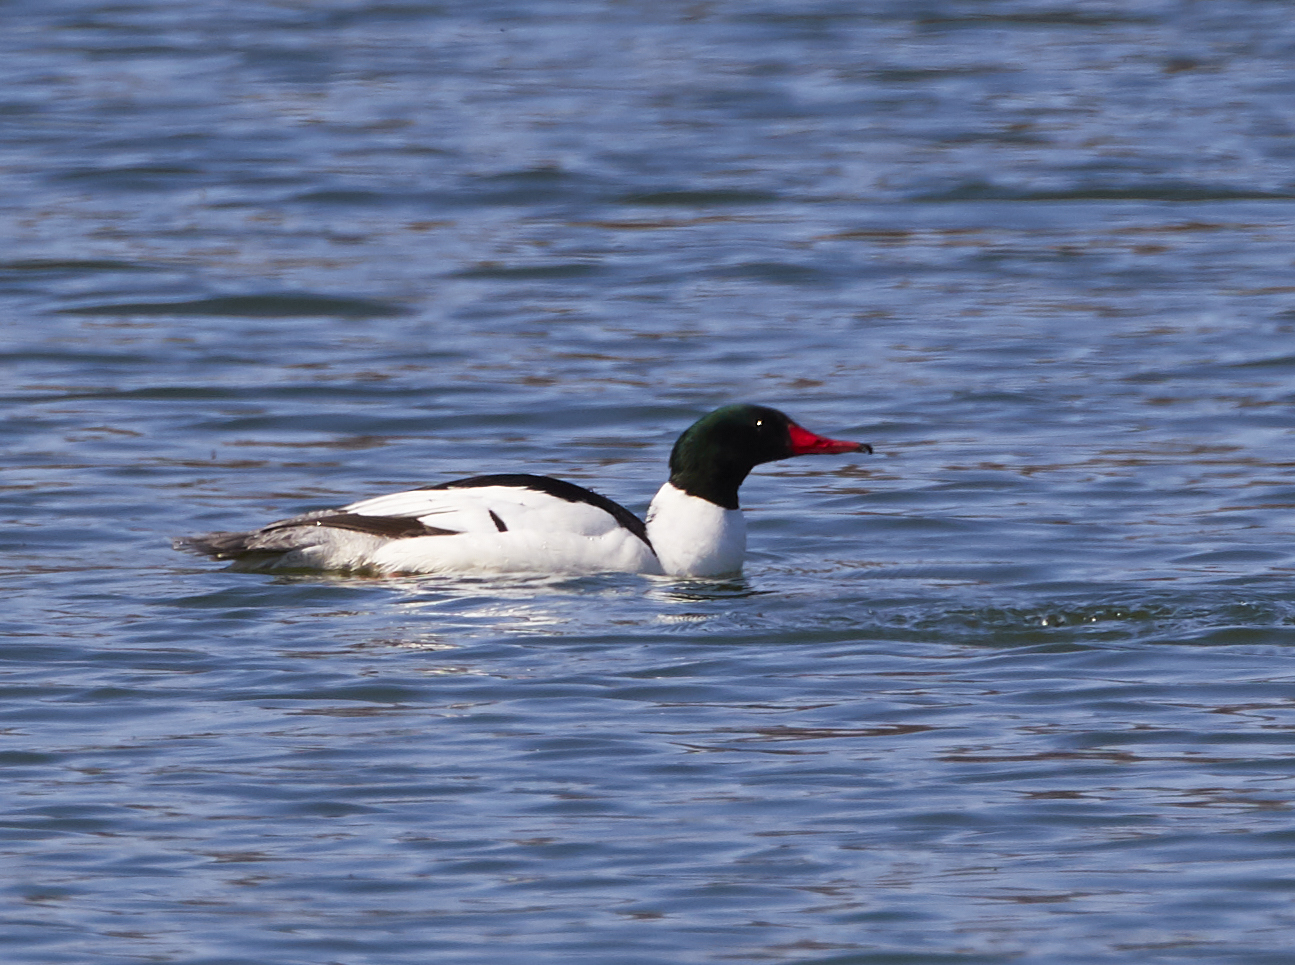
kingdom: Animalia
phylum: Chordata
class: Aves
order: Anseriformes
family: Anatidae
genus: Mergus
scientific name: Mergus merganser
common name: Common merganser
